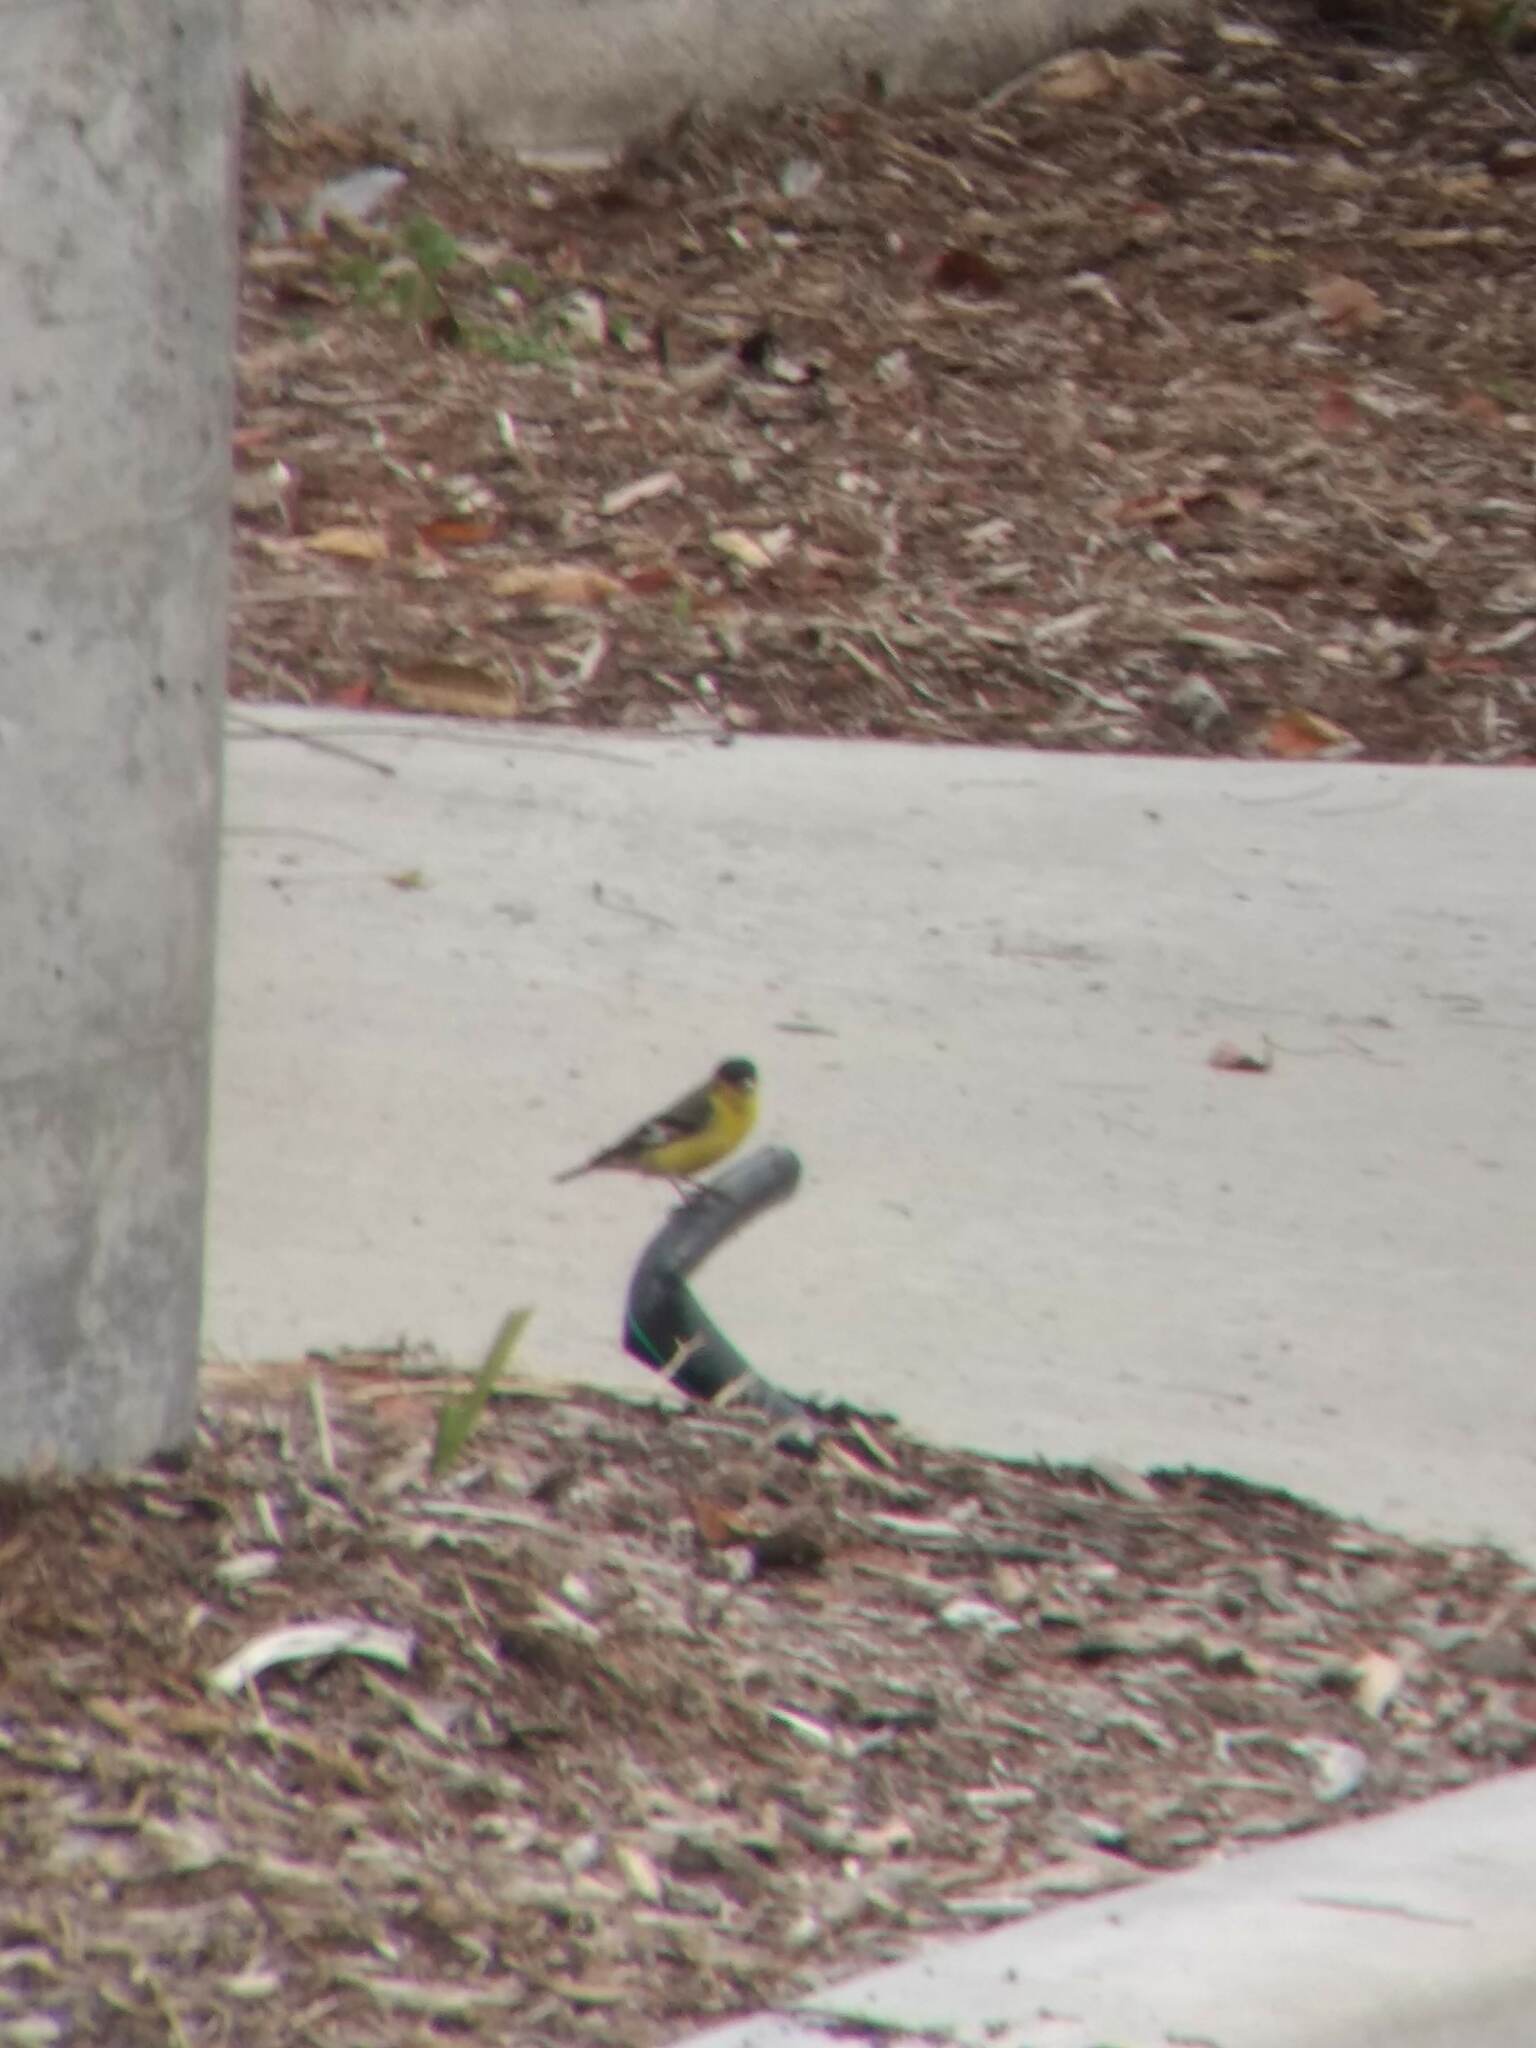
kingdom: Animalia
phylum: Chordata
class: Aves
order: Passeriformes
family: Fringillidae
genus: Spinus
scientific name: Spinus psaltria
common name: Lesser goldfinch
